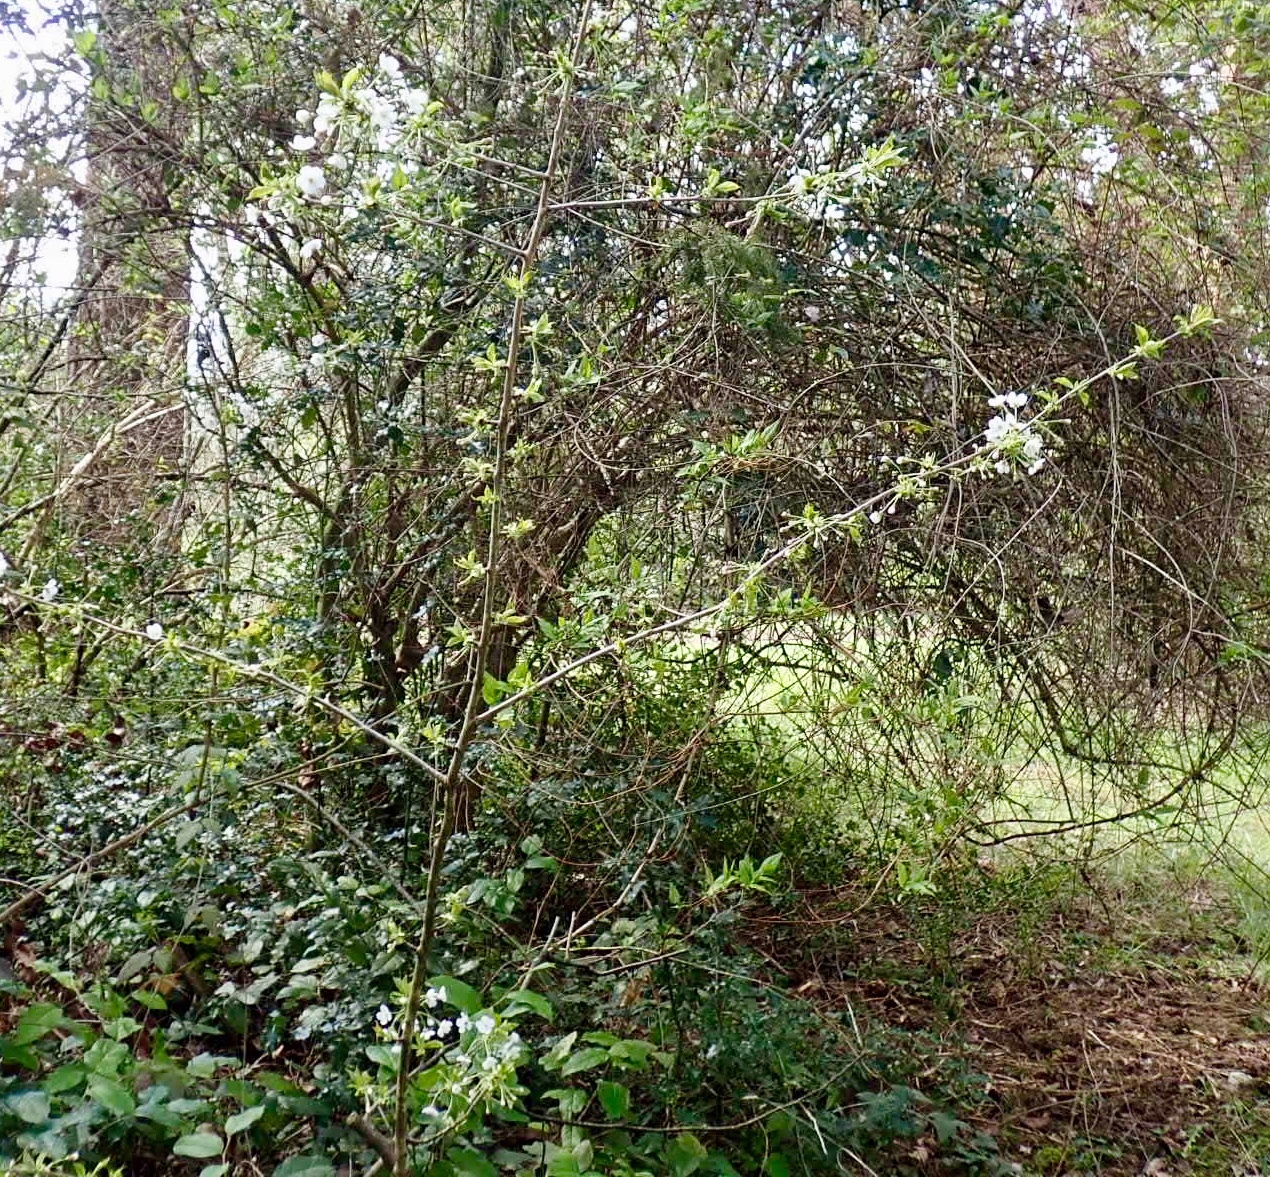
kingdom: Plantae
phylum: Tracheophyta
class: Magnoliopsida
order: Rosales
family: Rosaceae
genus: Fragaria
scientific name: Fragaria vesca
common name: Wild strawberry
